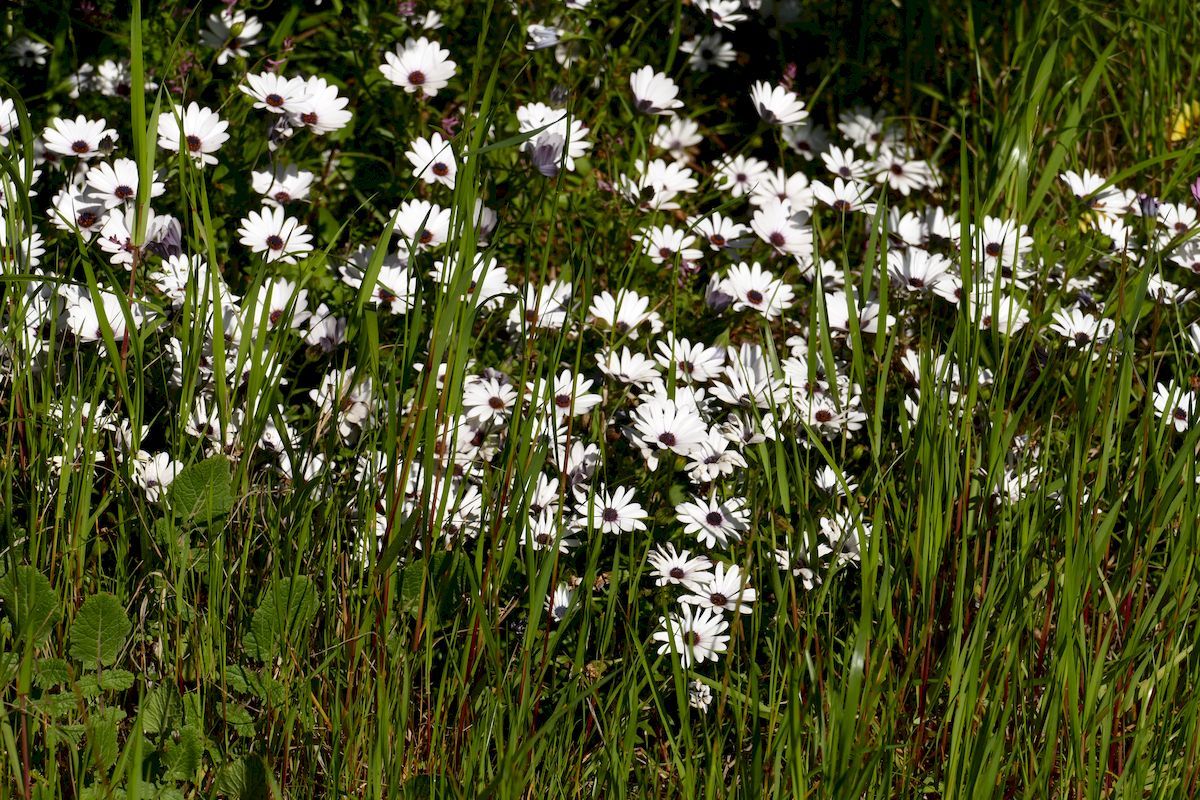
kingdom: Plantae
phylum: Tracheophyta
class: Magnoliopsida
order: Asterales
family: Asteraceae
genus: Dimorphotheca
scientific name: Dimorphotheca ecklonis
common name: Vanstaden's river daisy
